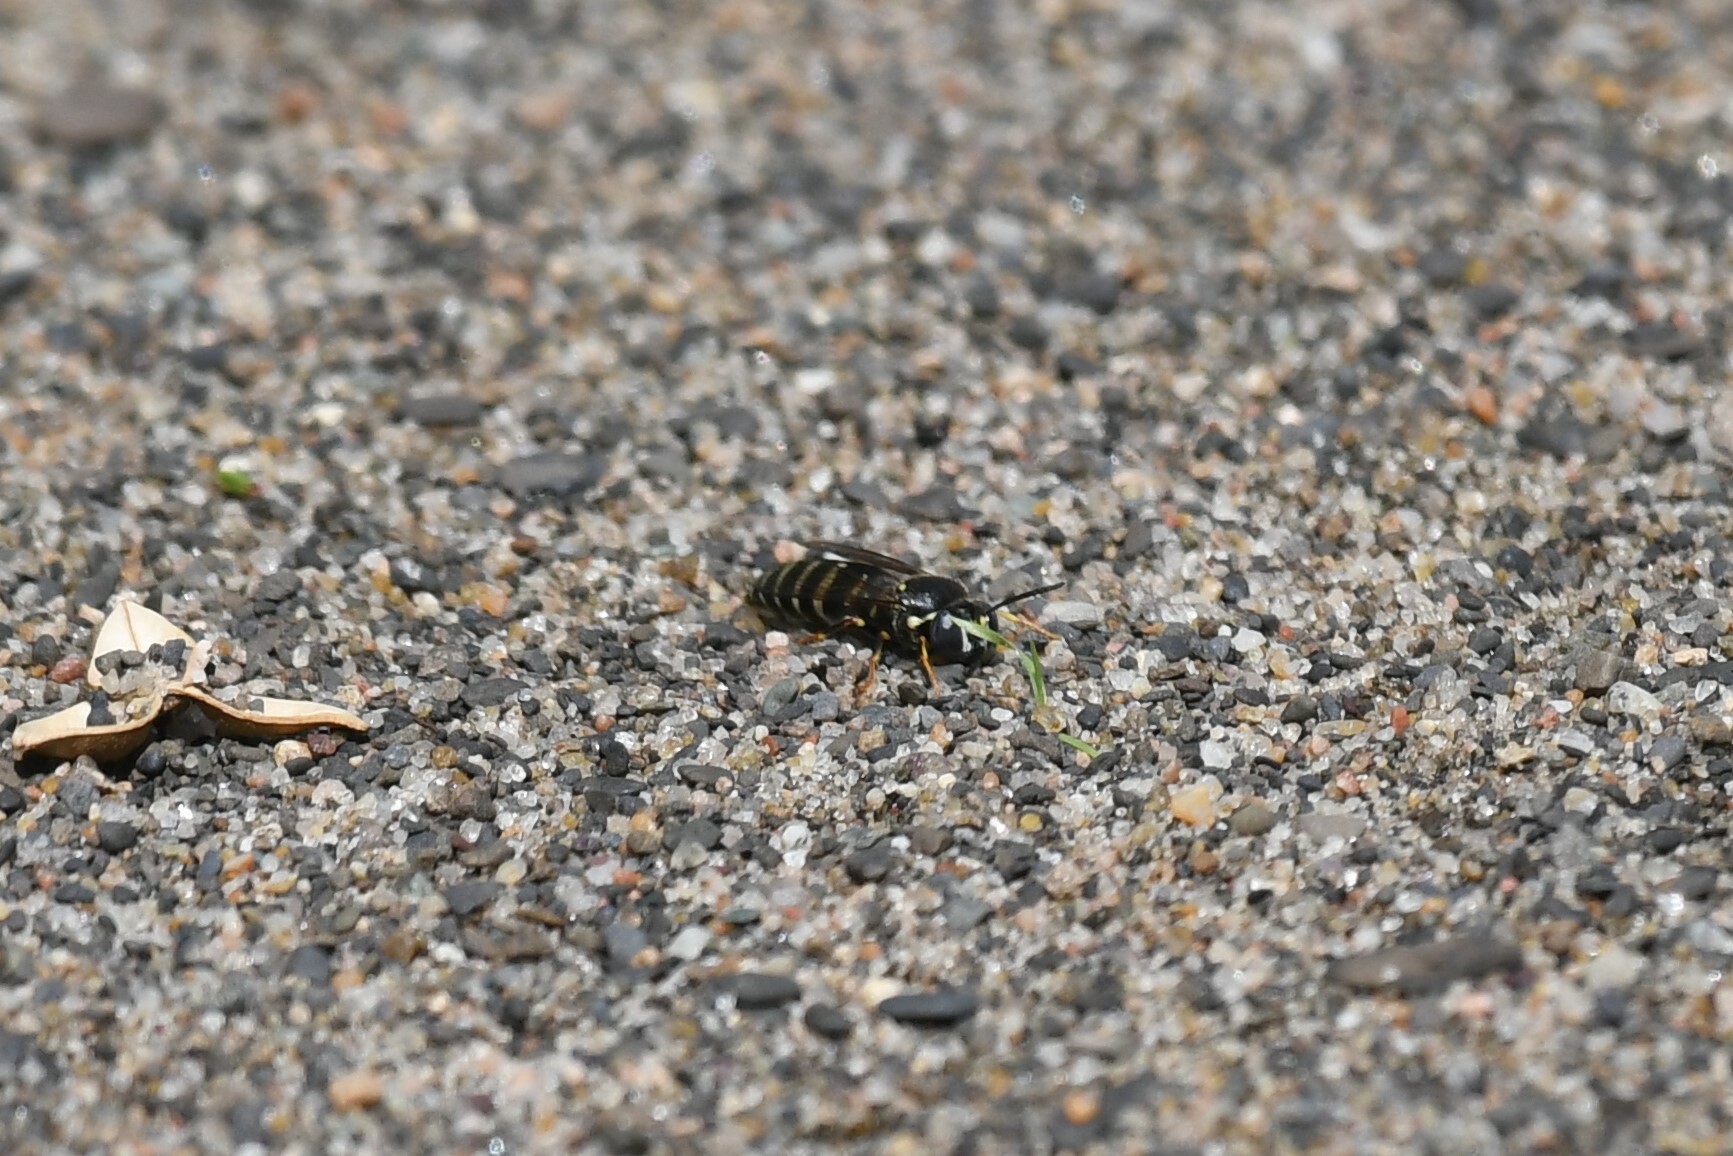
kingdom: Animalia
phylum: Arthropoda
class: Insecta
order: Hymenoptera
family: Crabronidae
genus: Bicyrtes
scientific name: Bicyrtes ventralis
